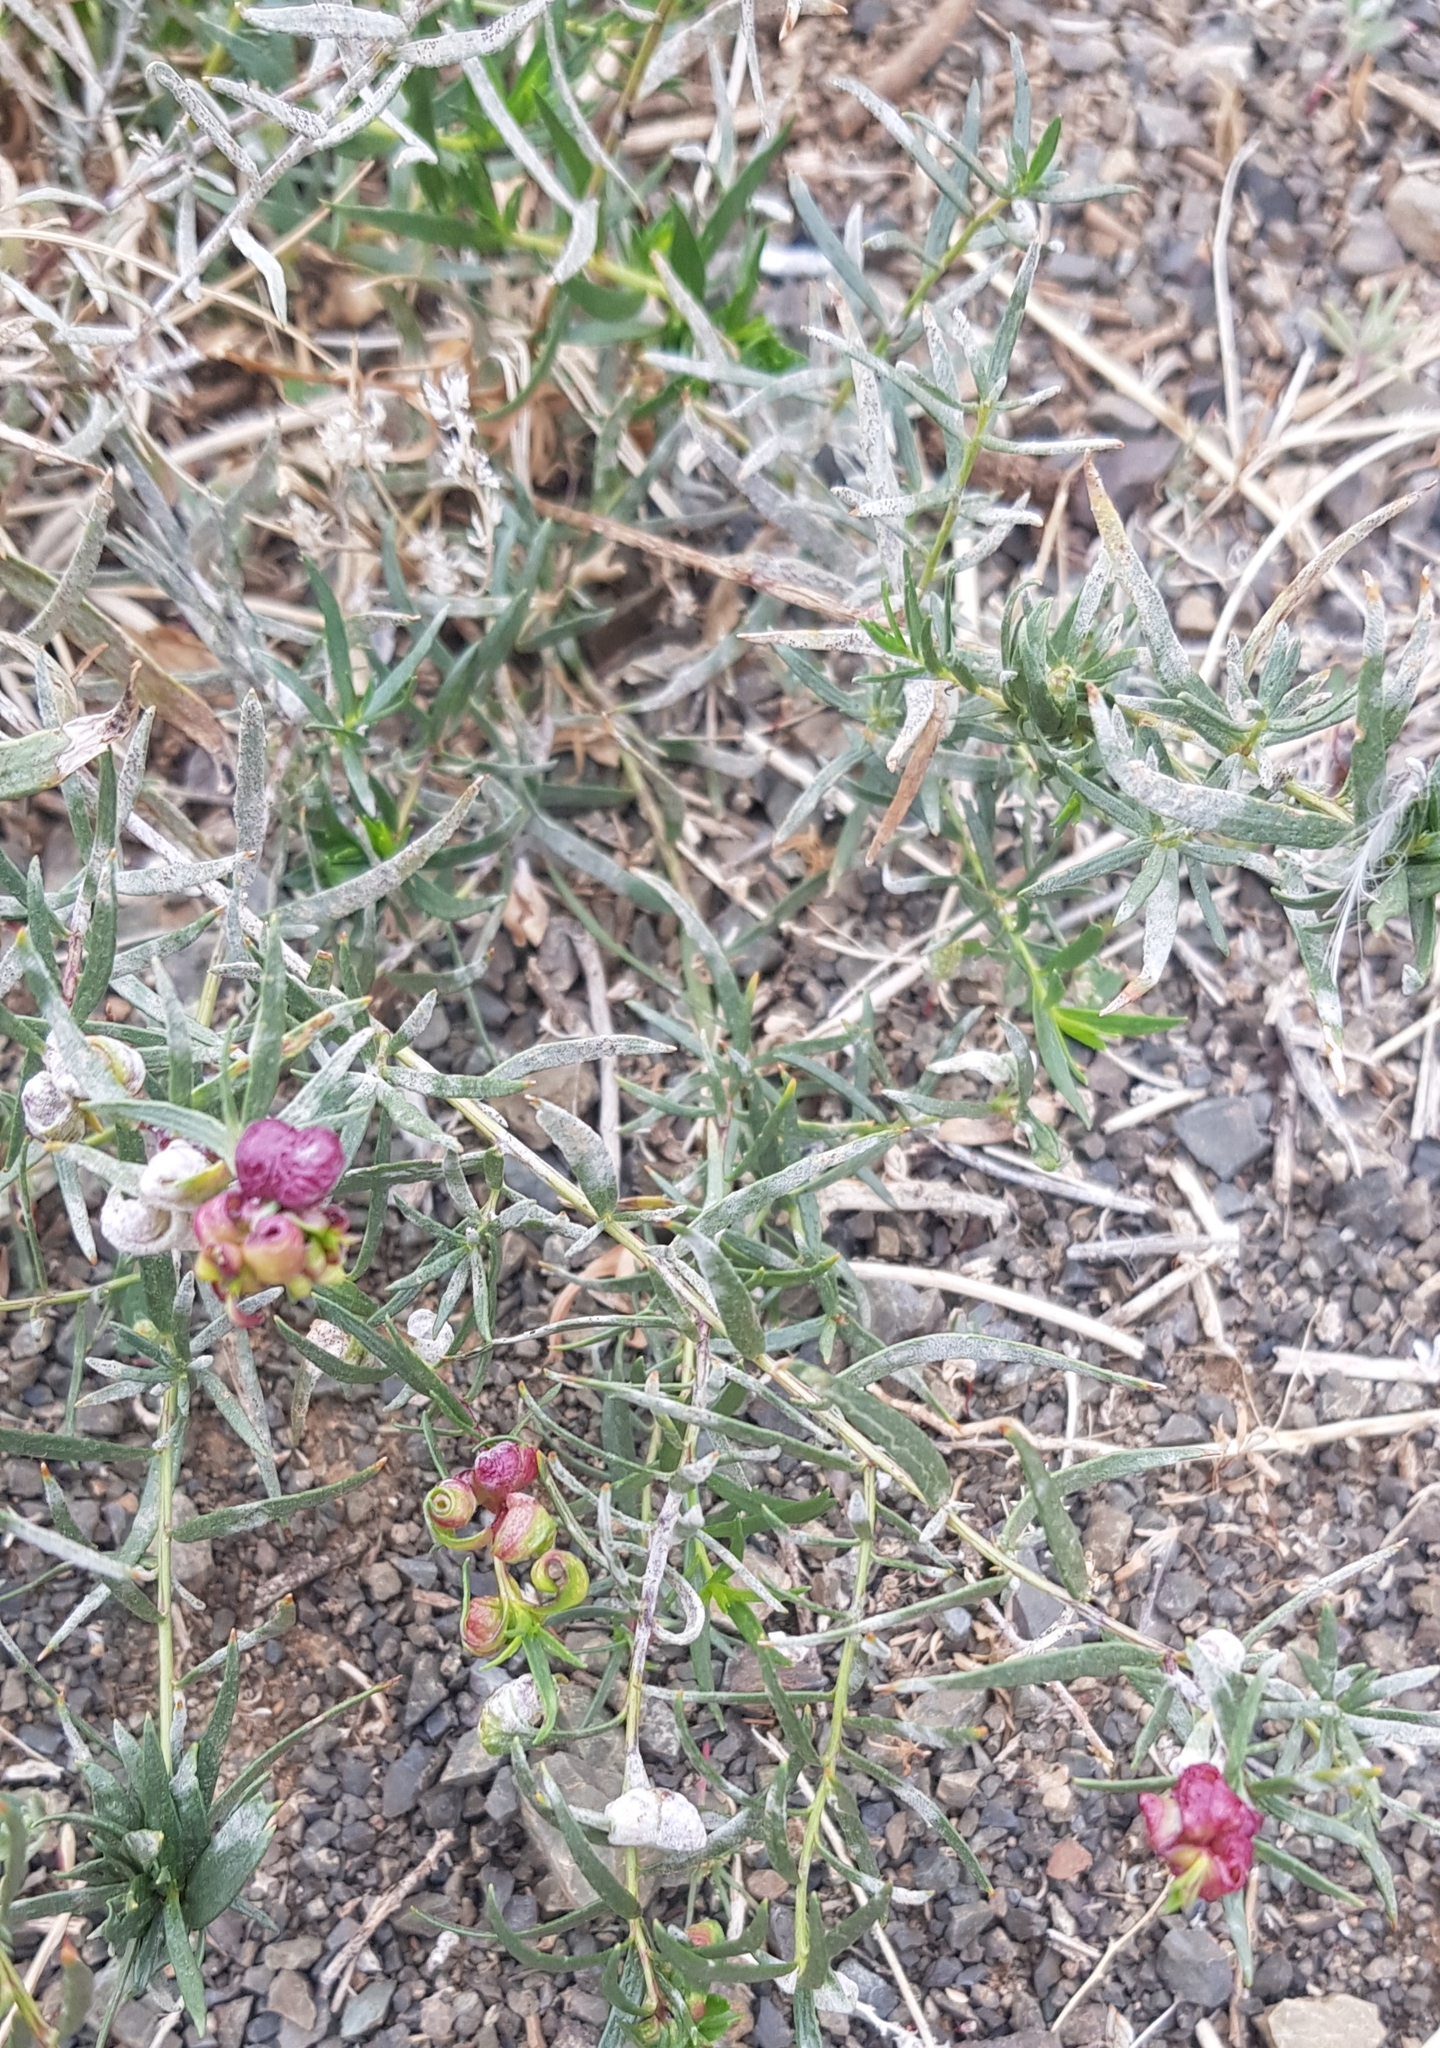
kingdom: Plantae
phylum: Tracheophyta
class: Magnoliopsida
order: Caryophyllales
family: Polygonaceae
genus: Atraphaxis
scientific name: Atraphaxis pungens
